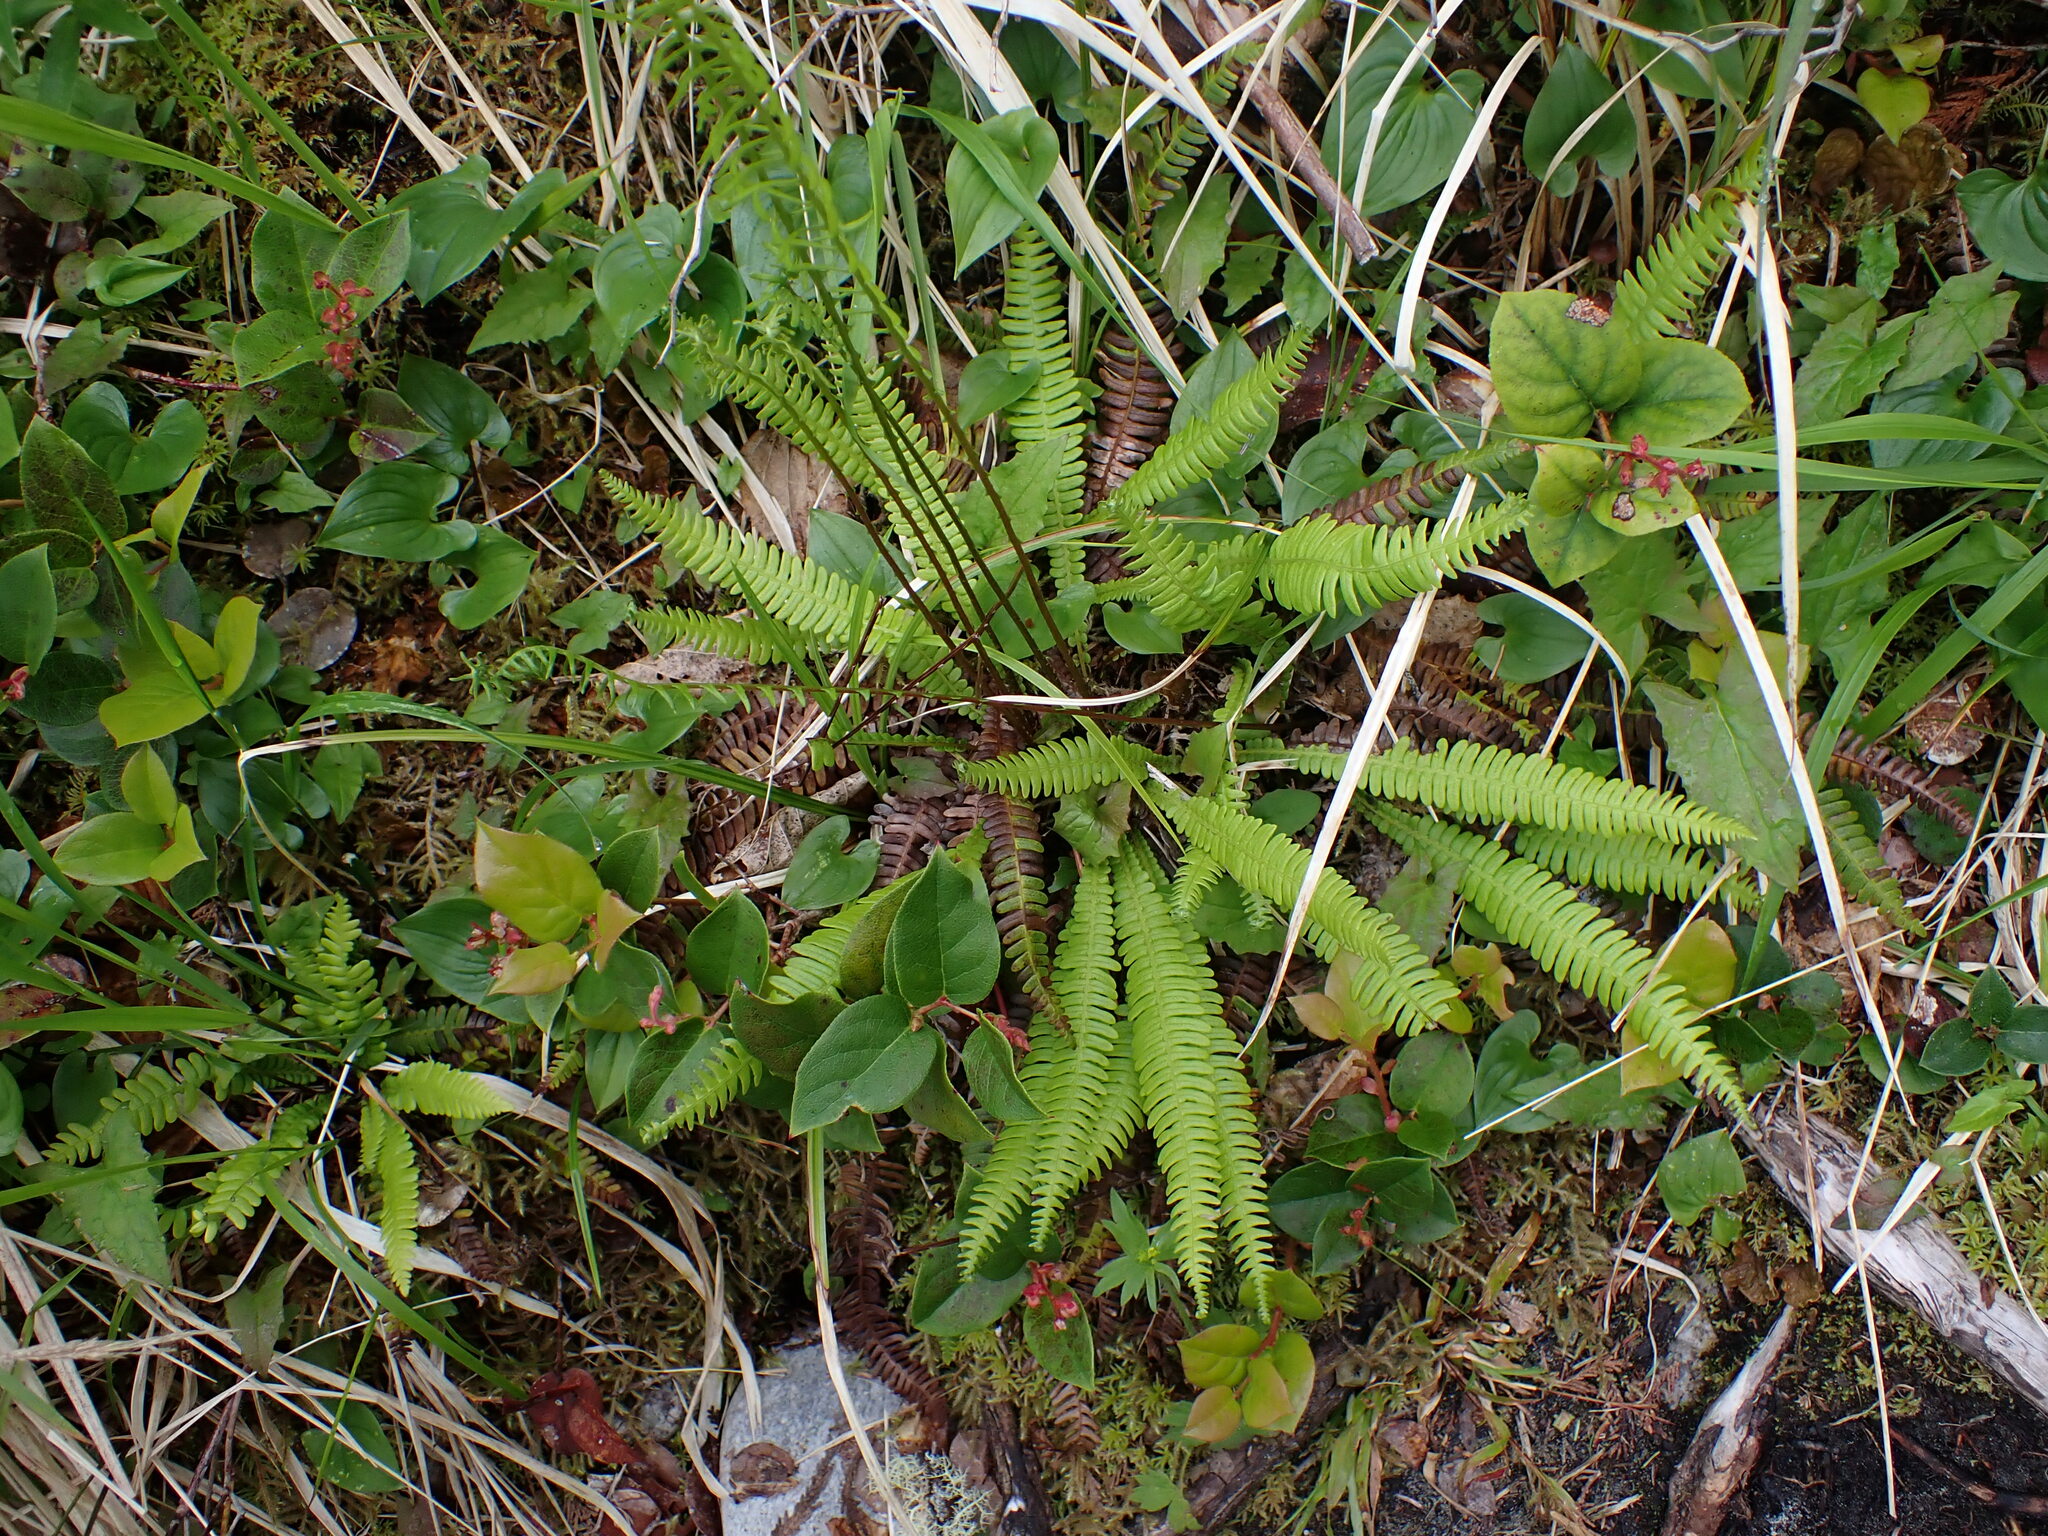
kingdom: Plantae
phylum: Tracheophyta
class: Polypodiopsida
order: Polypodiales
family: Blechnaceae
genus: Struthiopteris
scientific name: Struthiopteris spicant
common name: Deer fern
